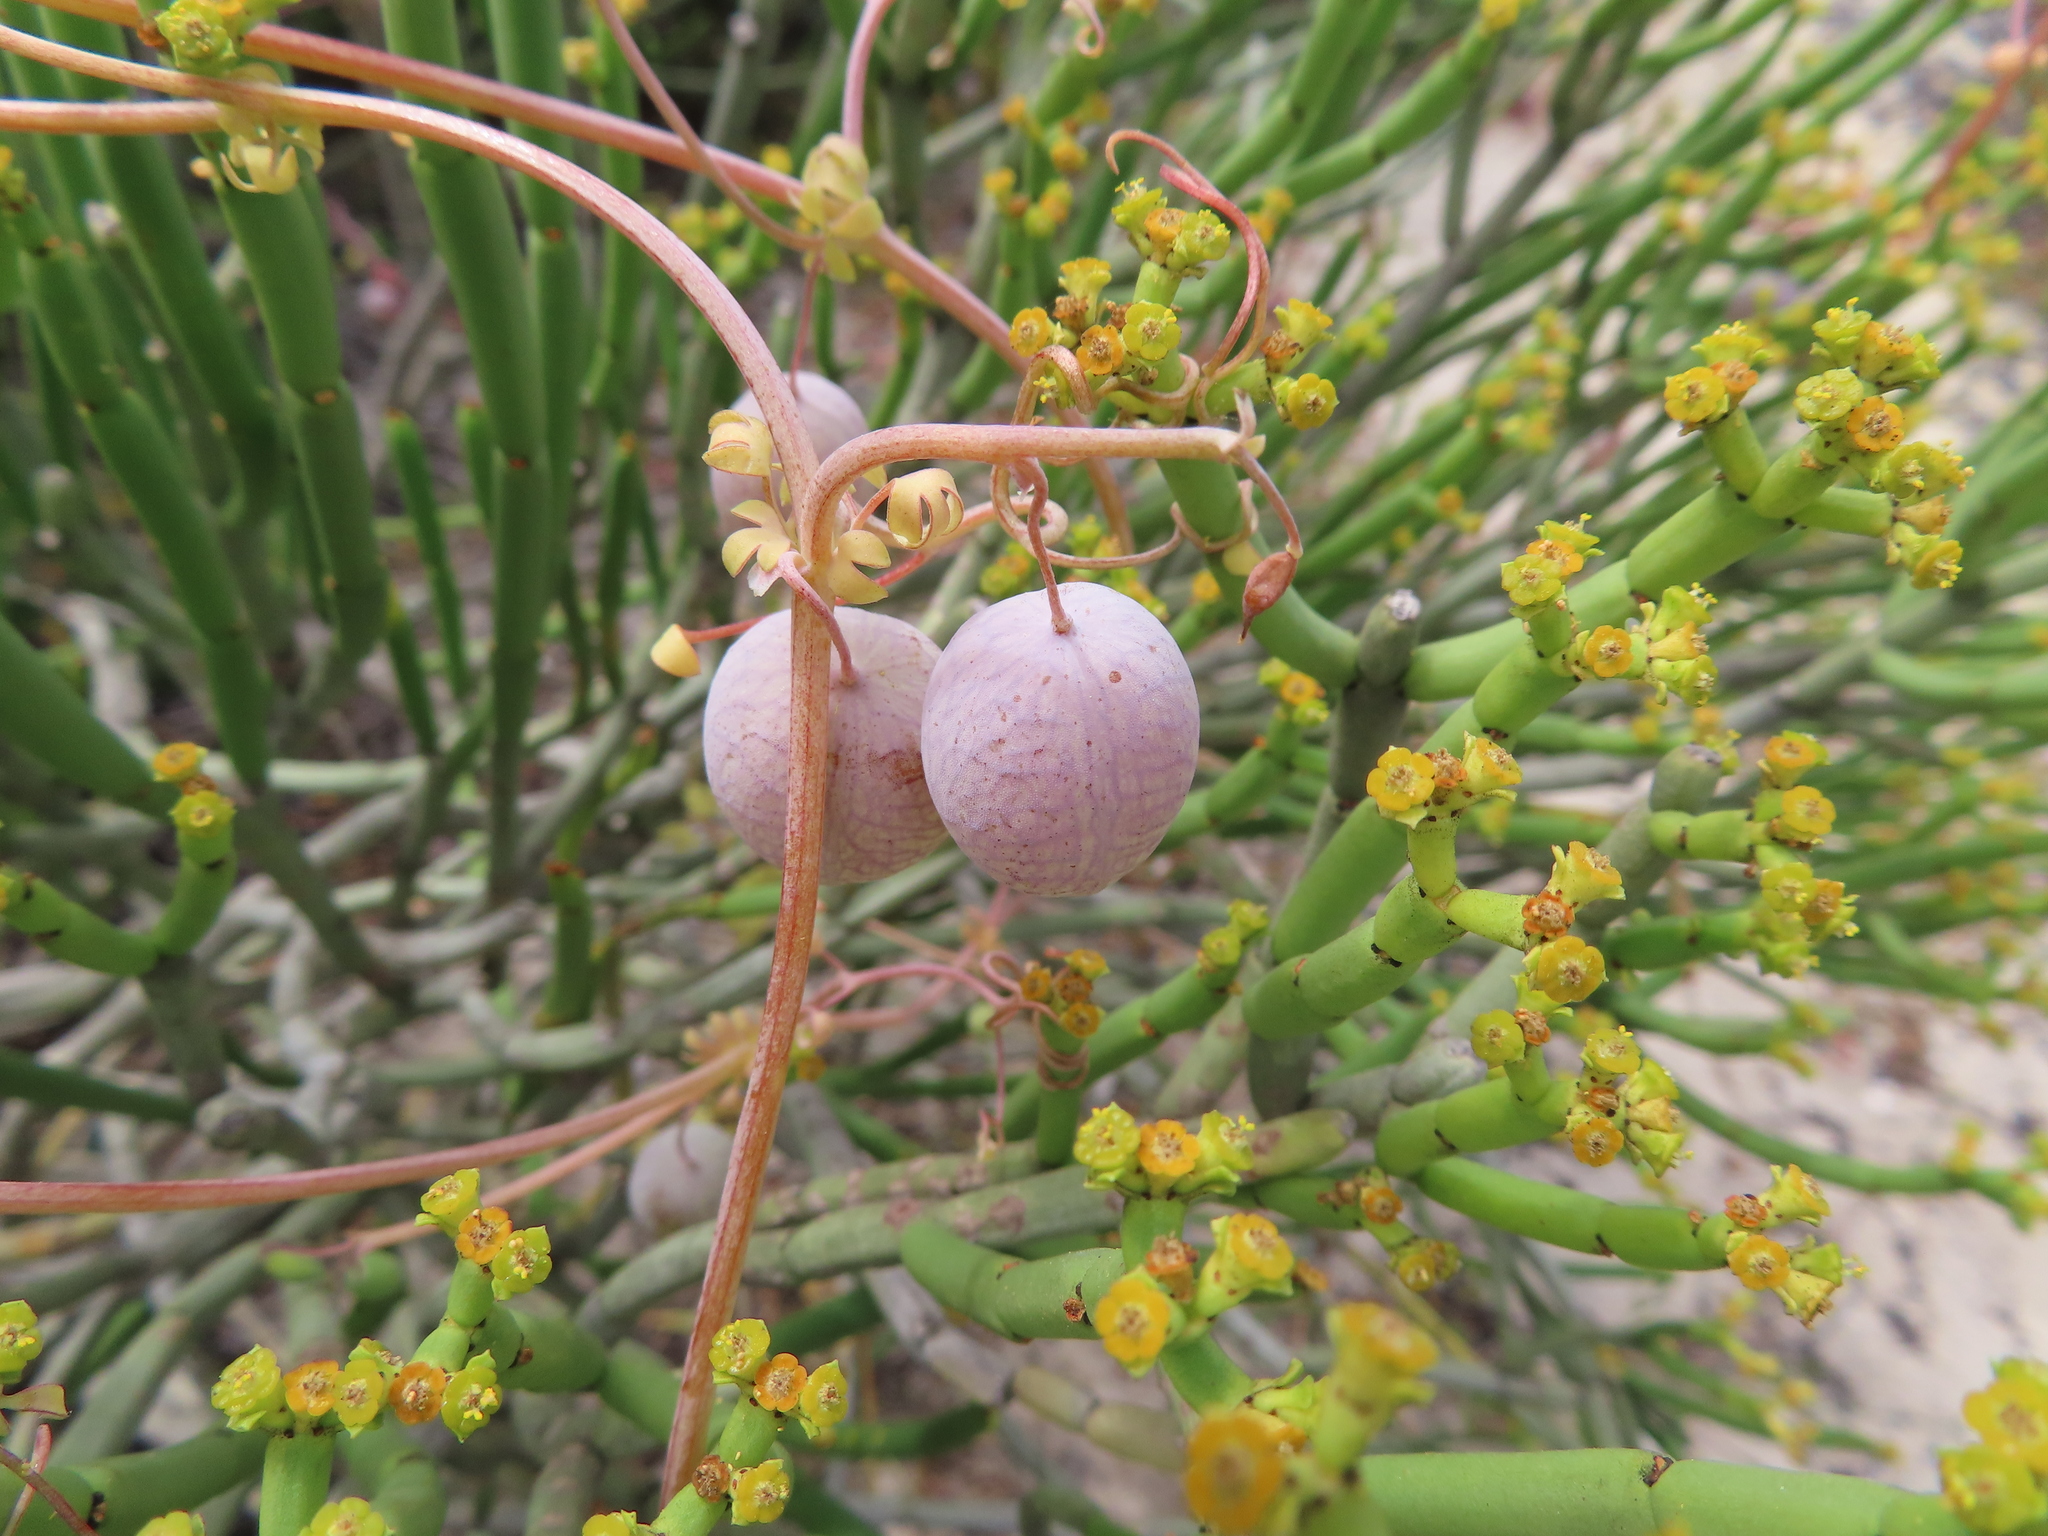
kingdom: Plantae
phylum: Tracheophyta
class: Magnoliopsida
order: Ranunculales
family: Papaveraceae
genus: Cysticapnos
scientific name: Cysticapnos vesicaria
